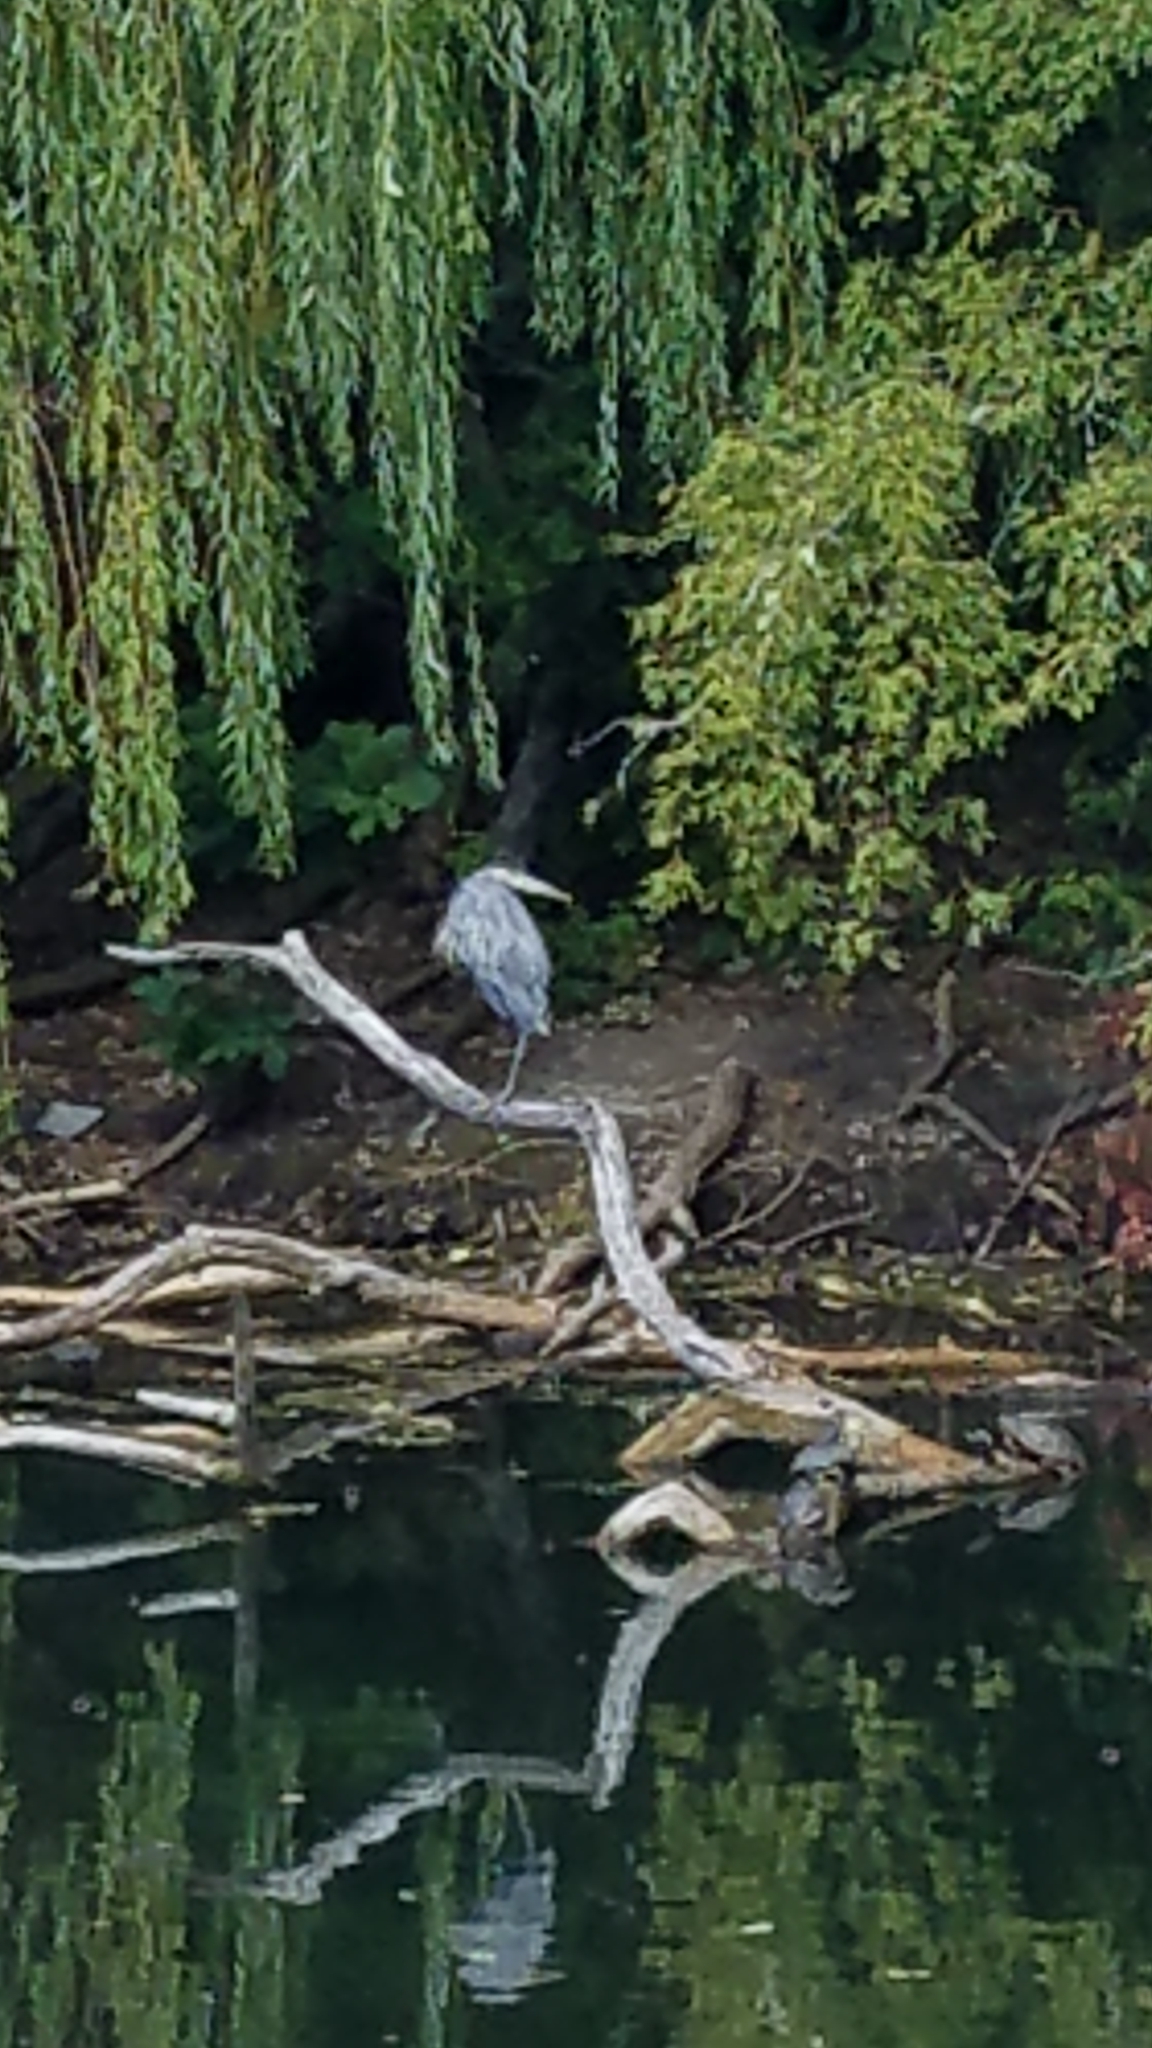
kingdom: Animalia
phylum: Chordata
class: Aves
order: Pelecaniformes
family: Ardeidae
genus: Ardea
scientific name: Ardea herodias
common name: Great blue heron
